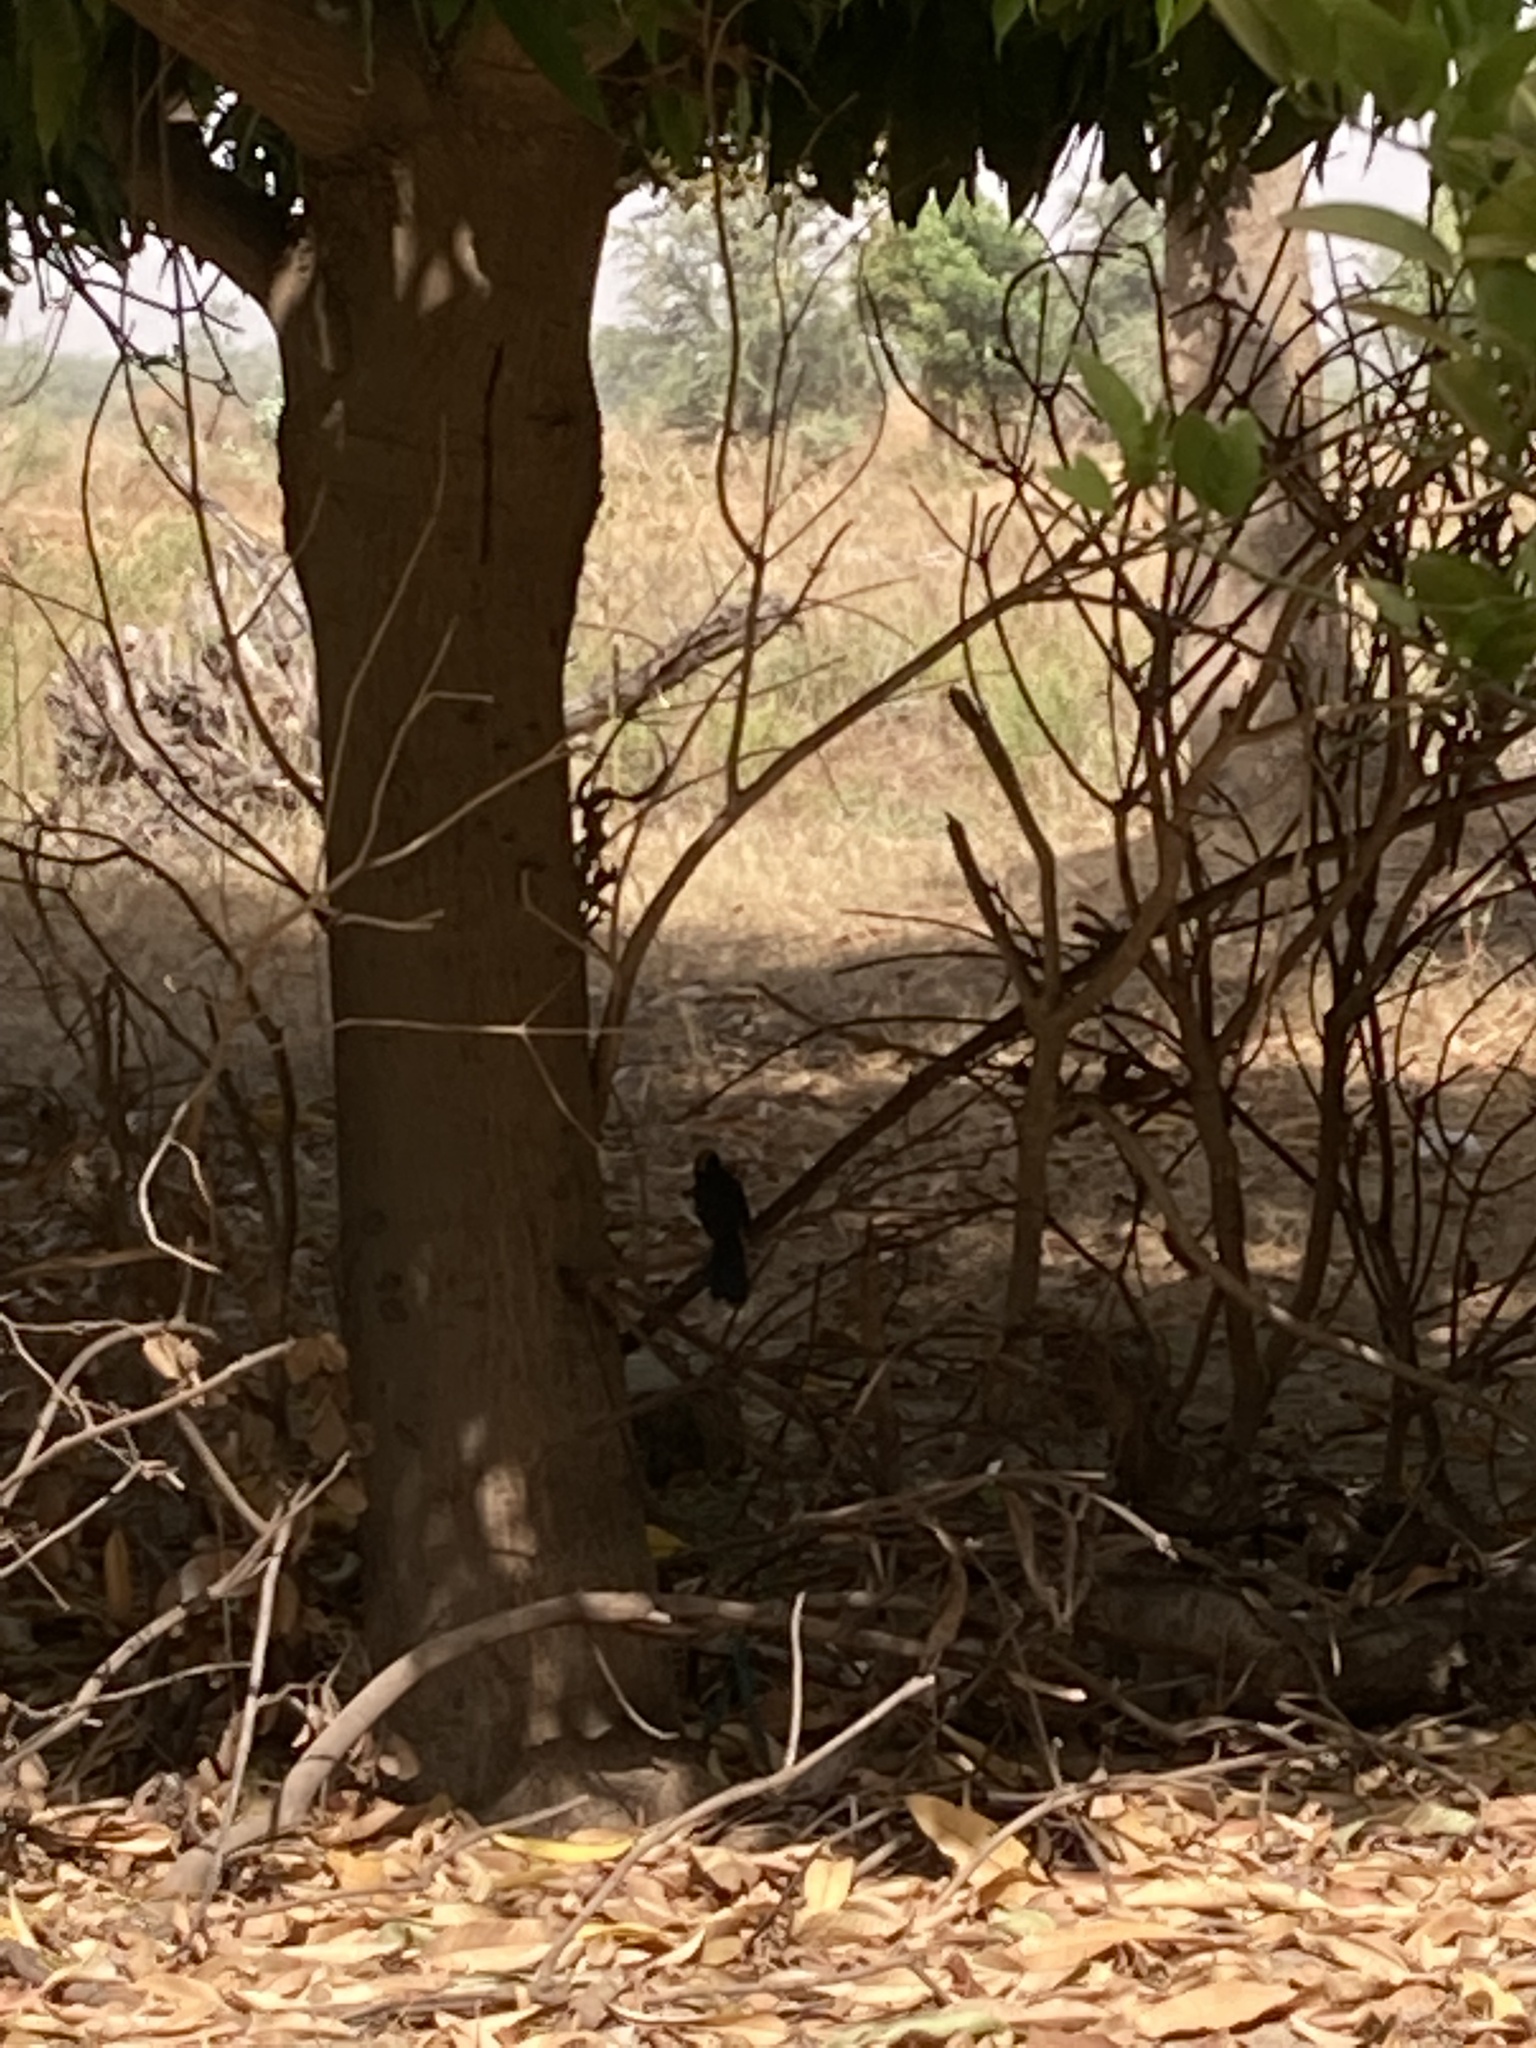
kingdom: Animalia
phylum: Chordata
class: Aves
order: Passeriformes
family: Malaconotidae
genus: Laniarius
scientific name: Laniarius barbarus
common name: Yellow-crowned gonolek
